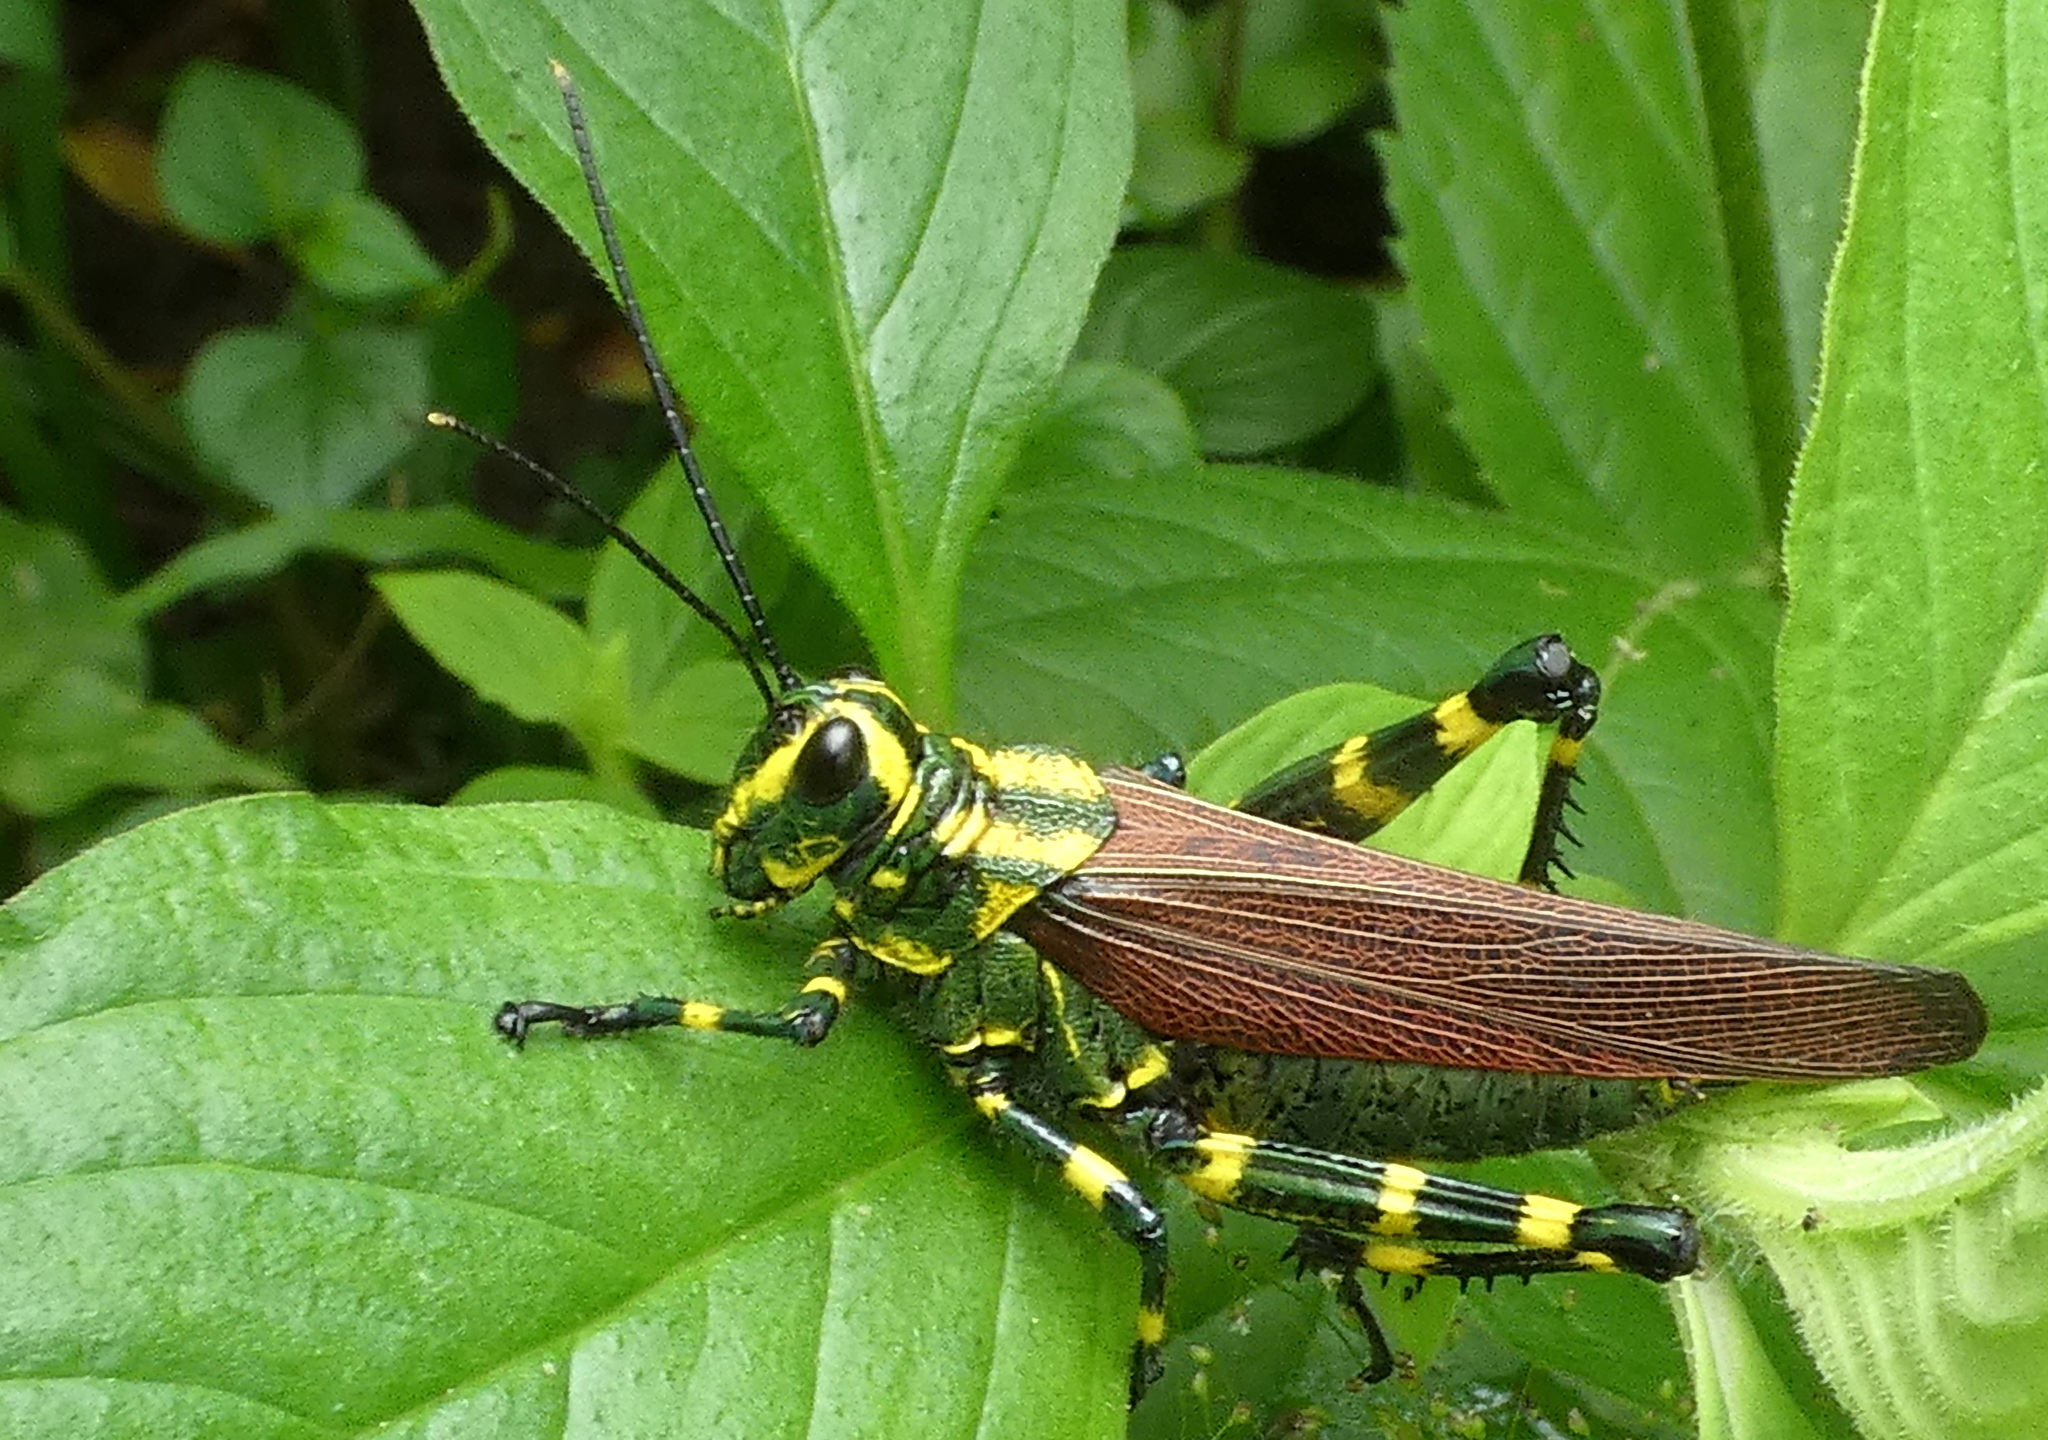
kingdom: Animalia
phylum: Arthropoda
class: Insecta
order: Orthoptera
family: Romaleidae
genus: Chromacris
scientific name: Chromacris speciosa
